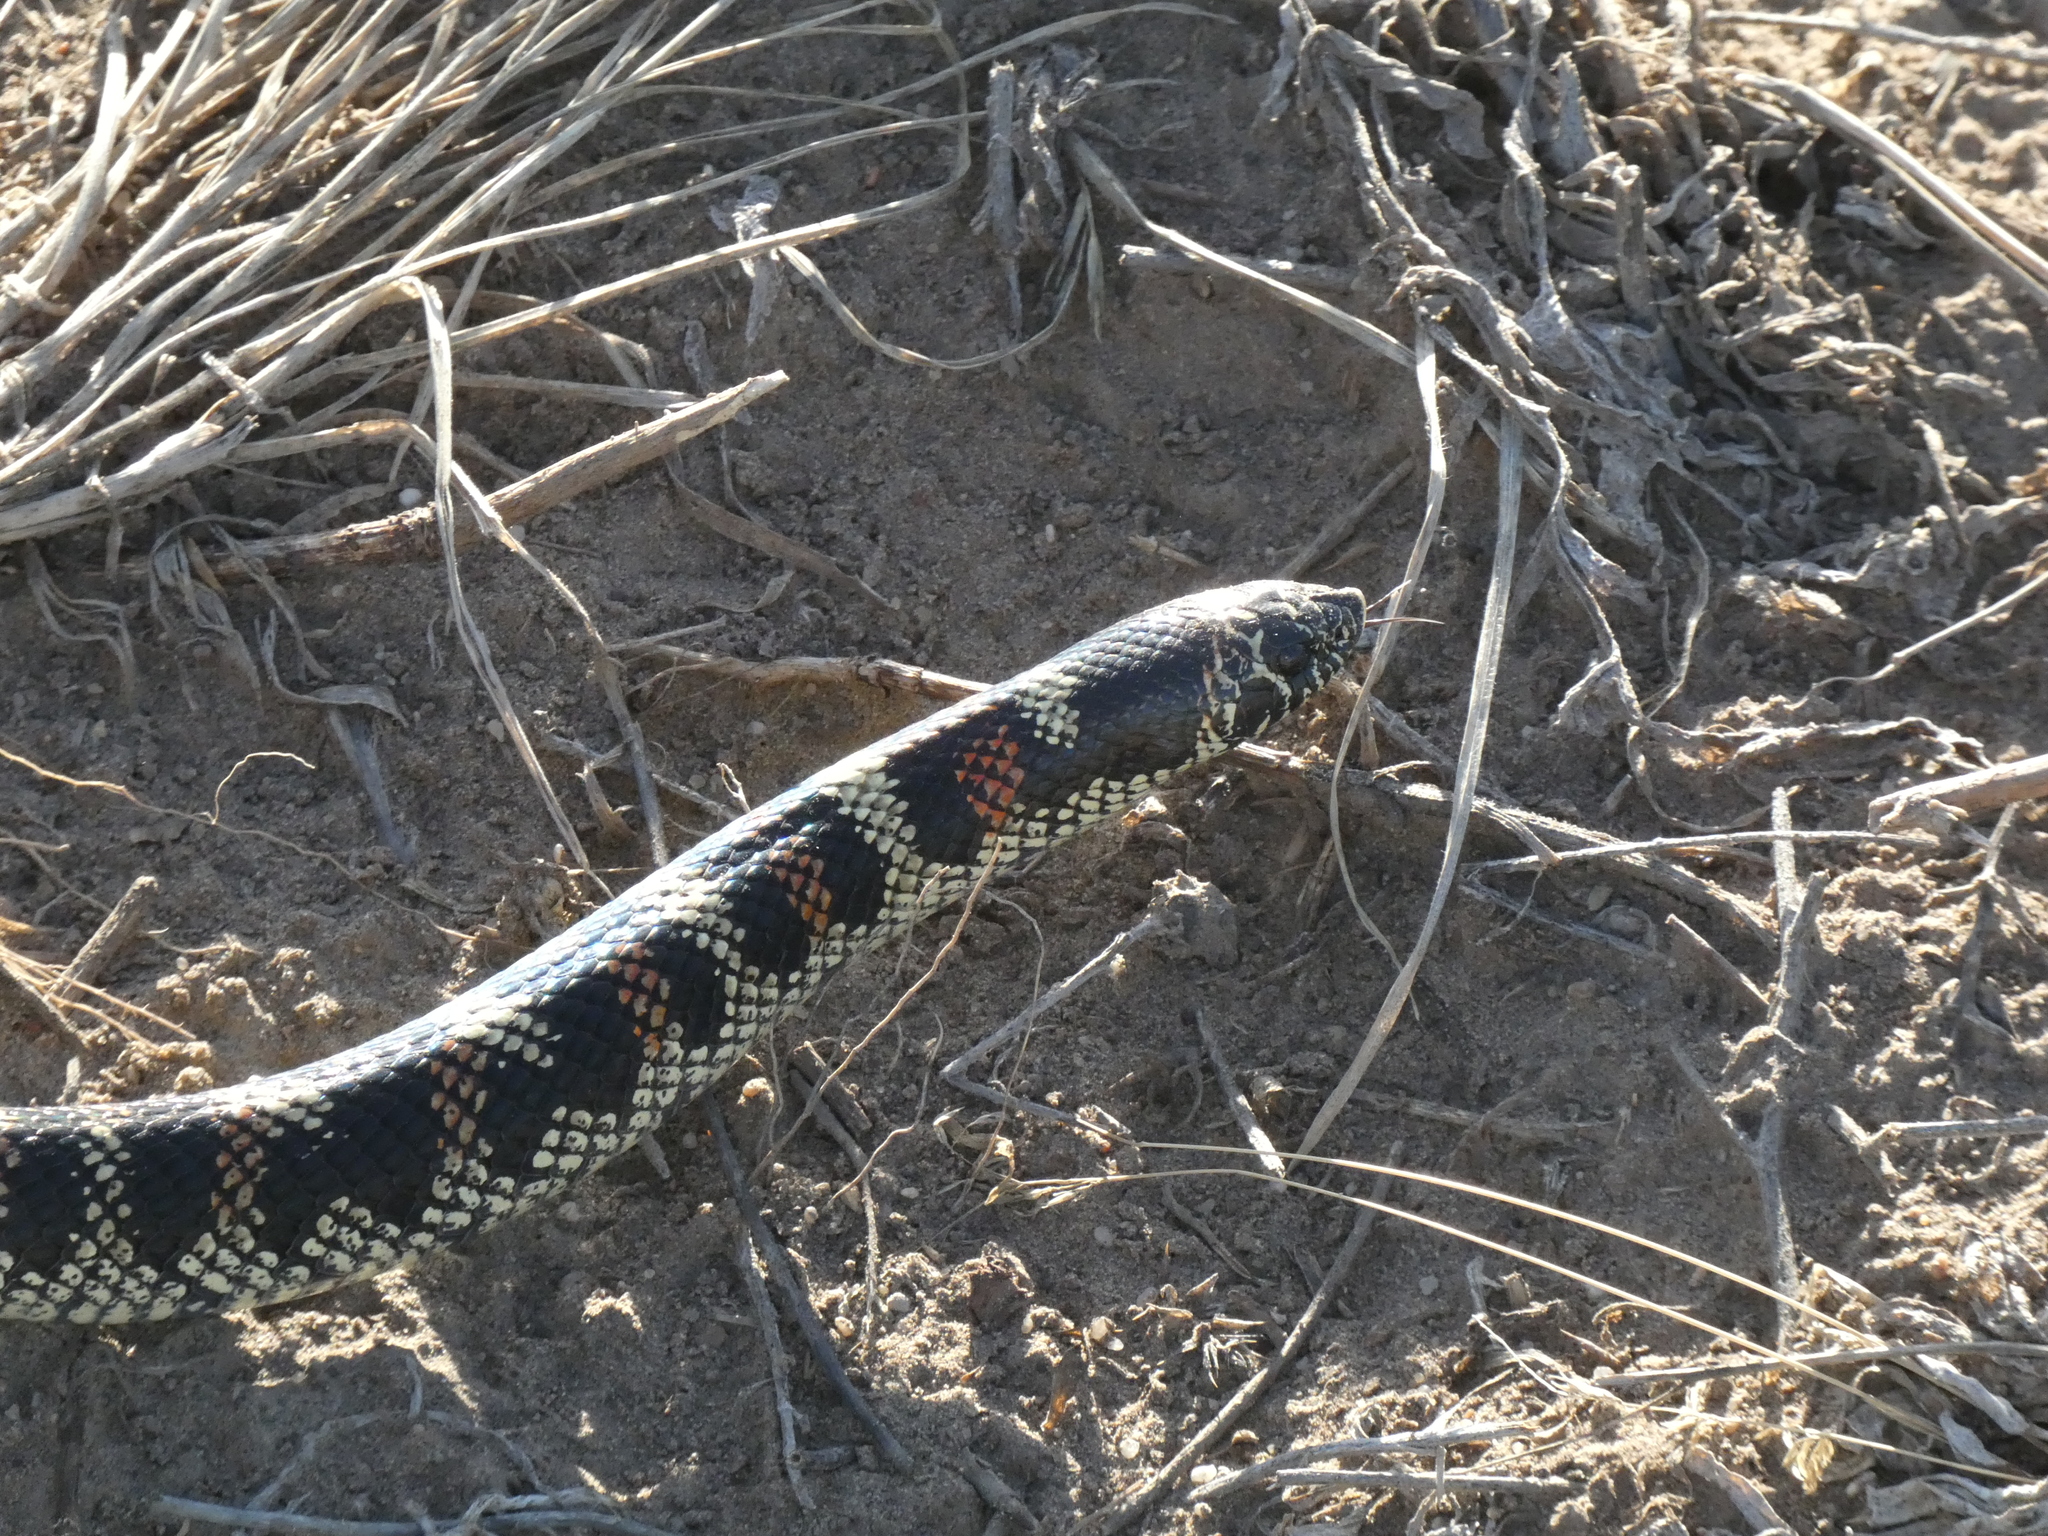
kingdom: Animalia
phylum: Chordata
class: Squamata
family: Colubridae
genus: Xenodon
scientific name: Xenodon semicinctus
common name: Ringed hognose snake
